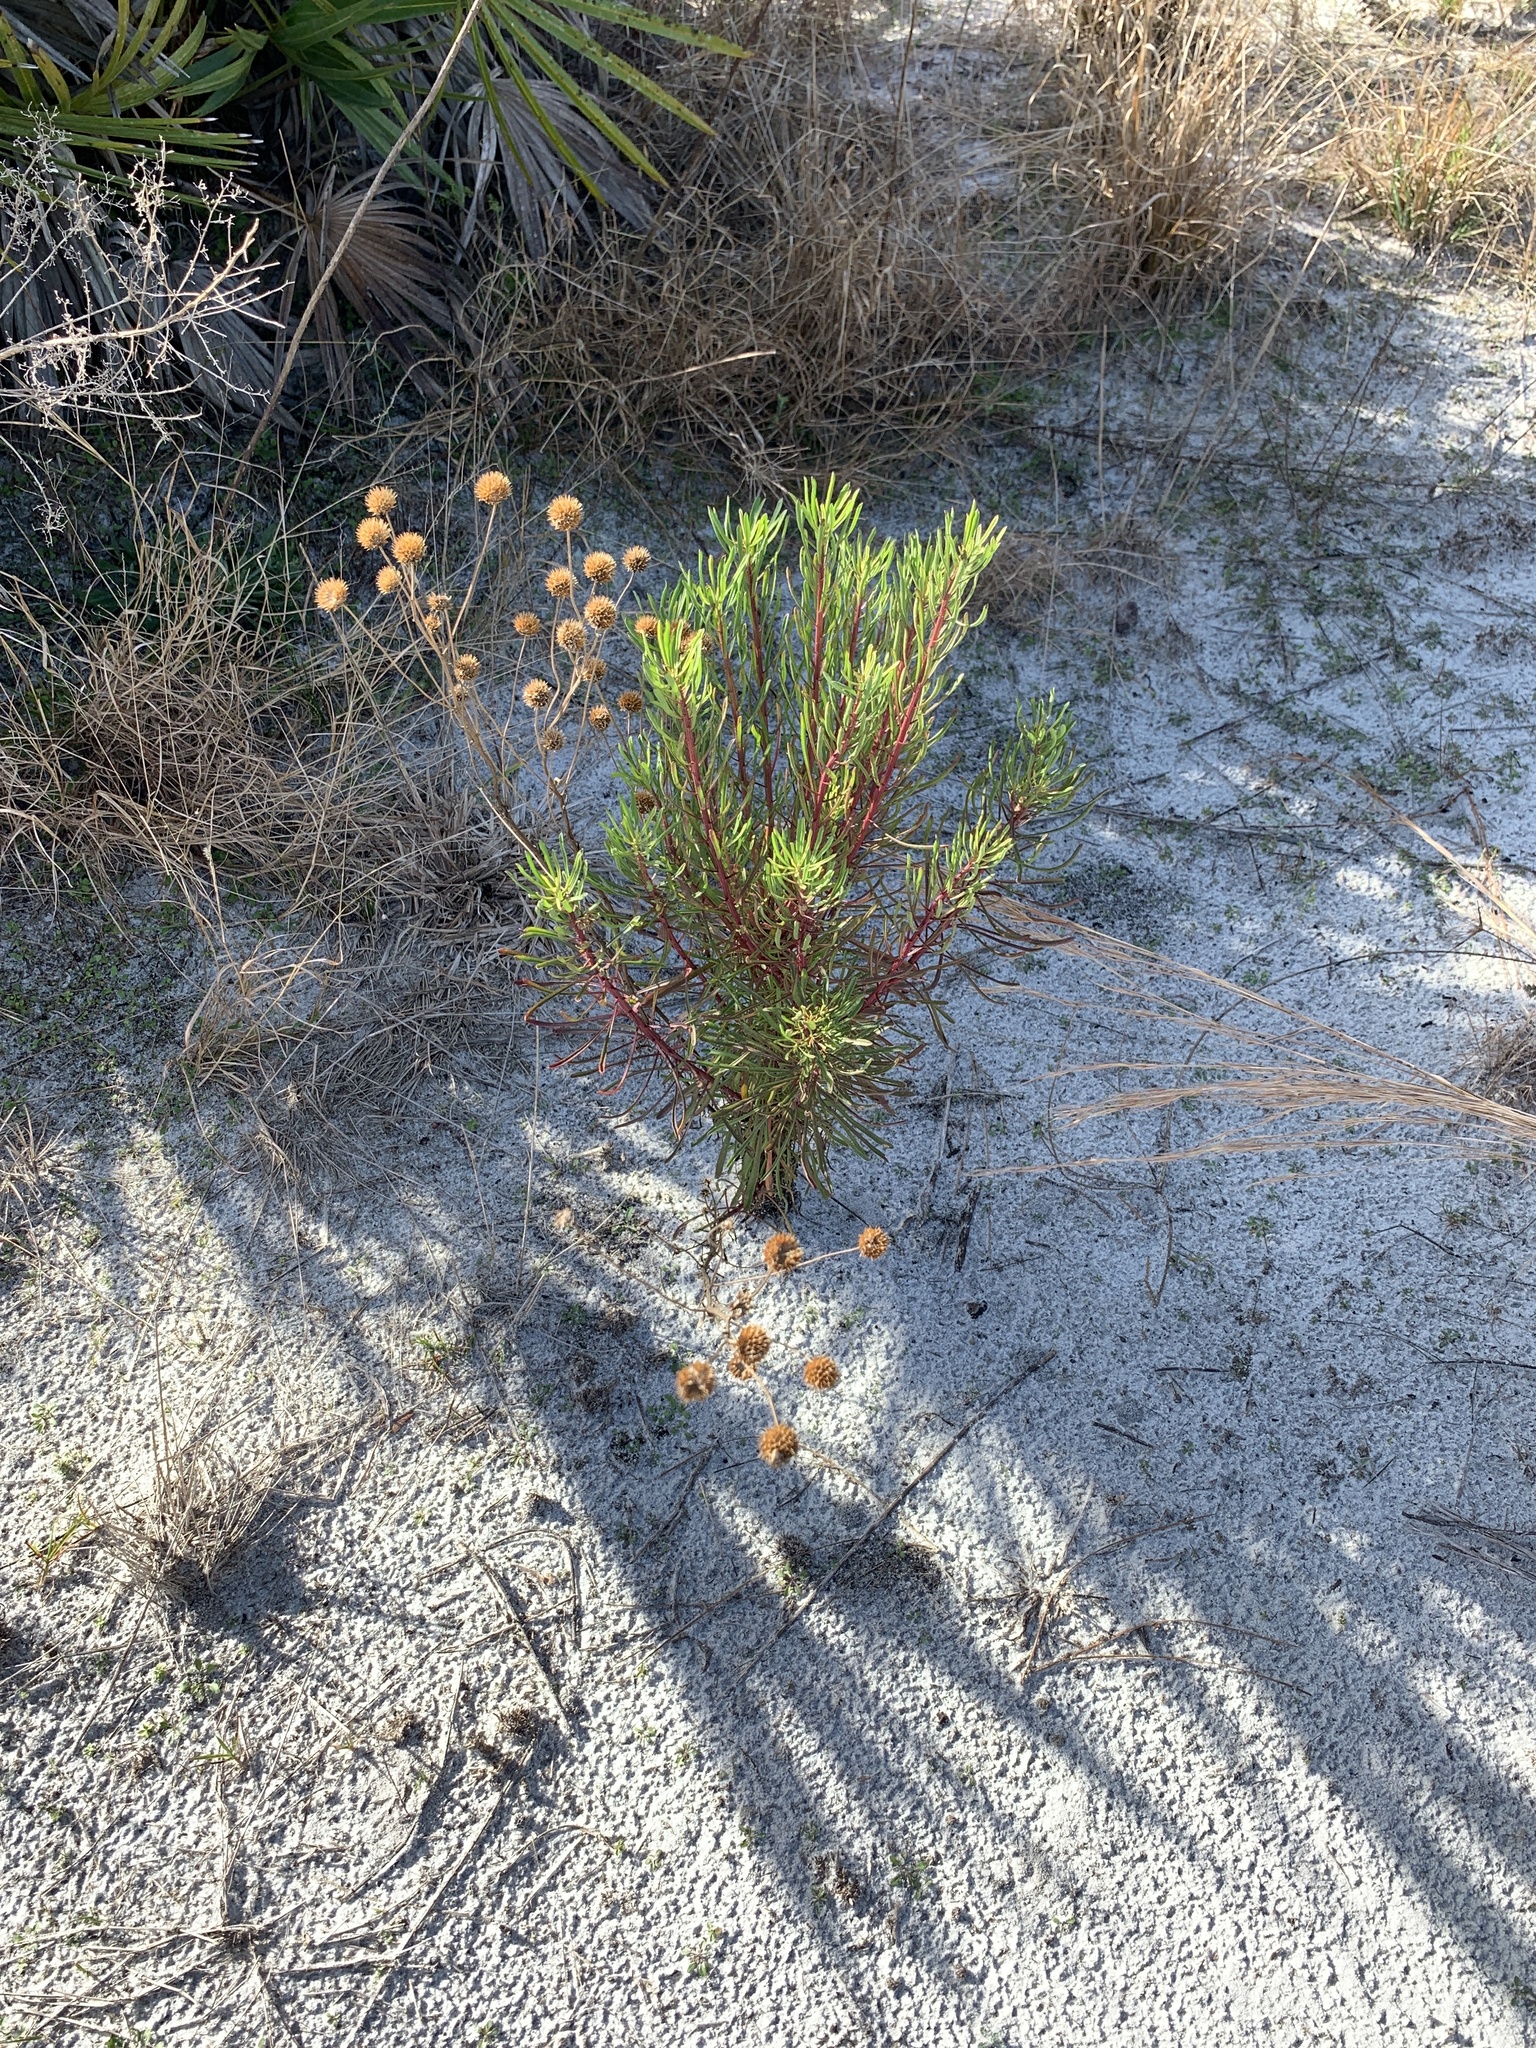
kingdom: Plantae
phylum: Tracheophyta
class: Magnoliopsida
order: Asterales
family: Asteraceae
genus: Balduina
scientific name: Balduina angustifolia
